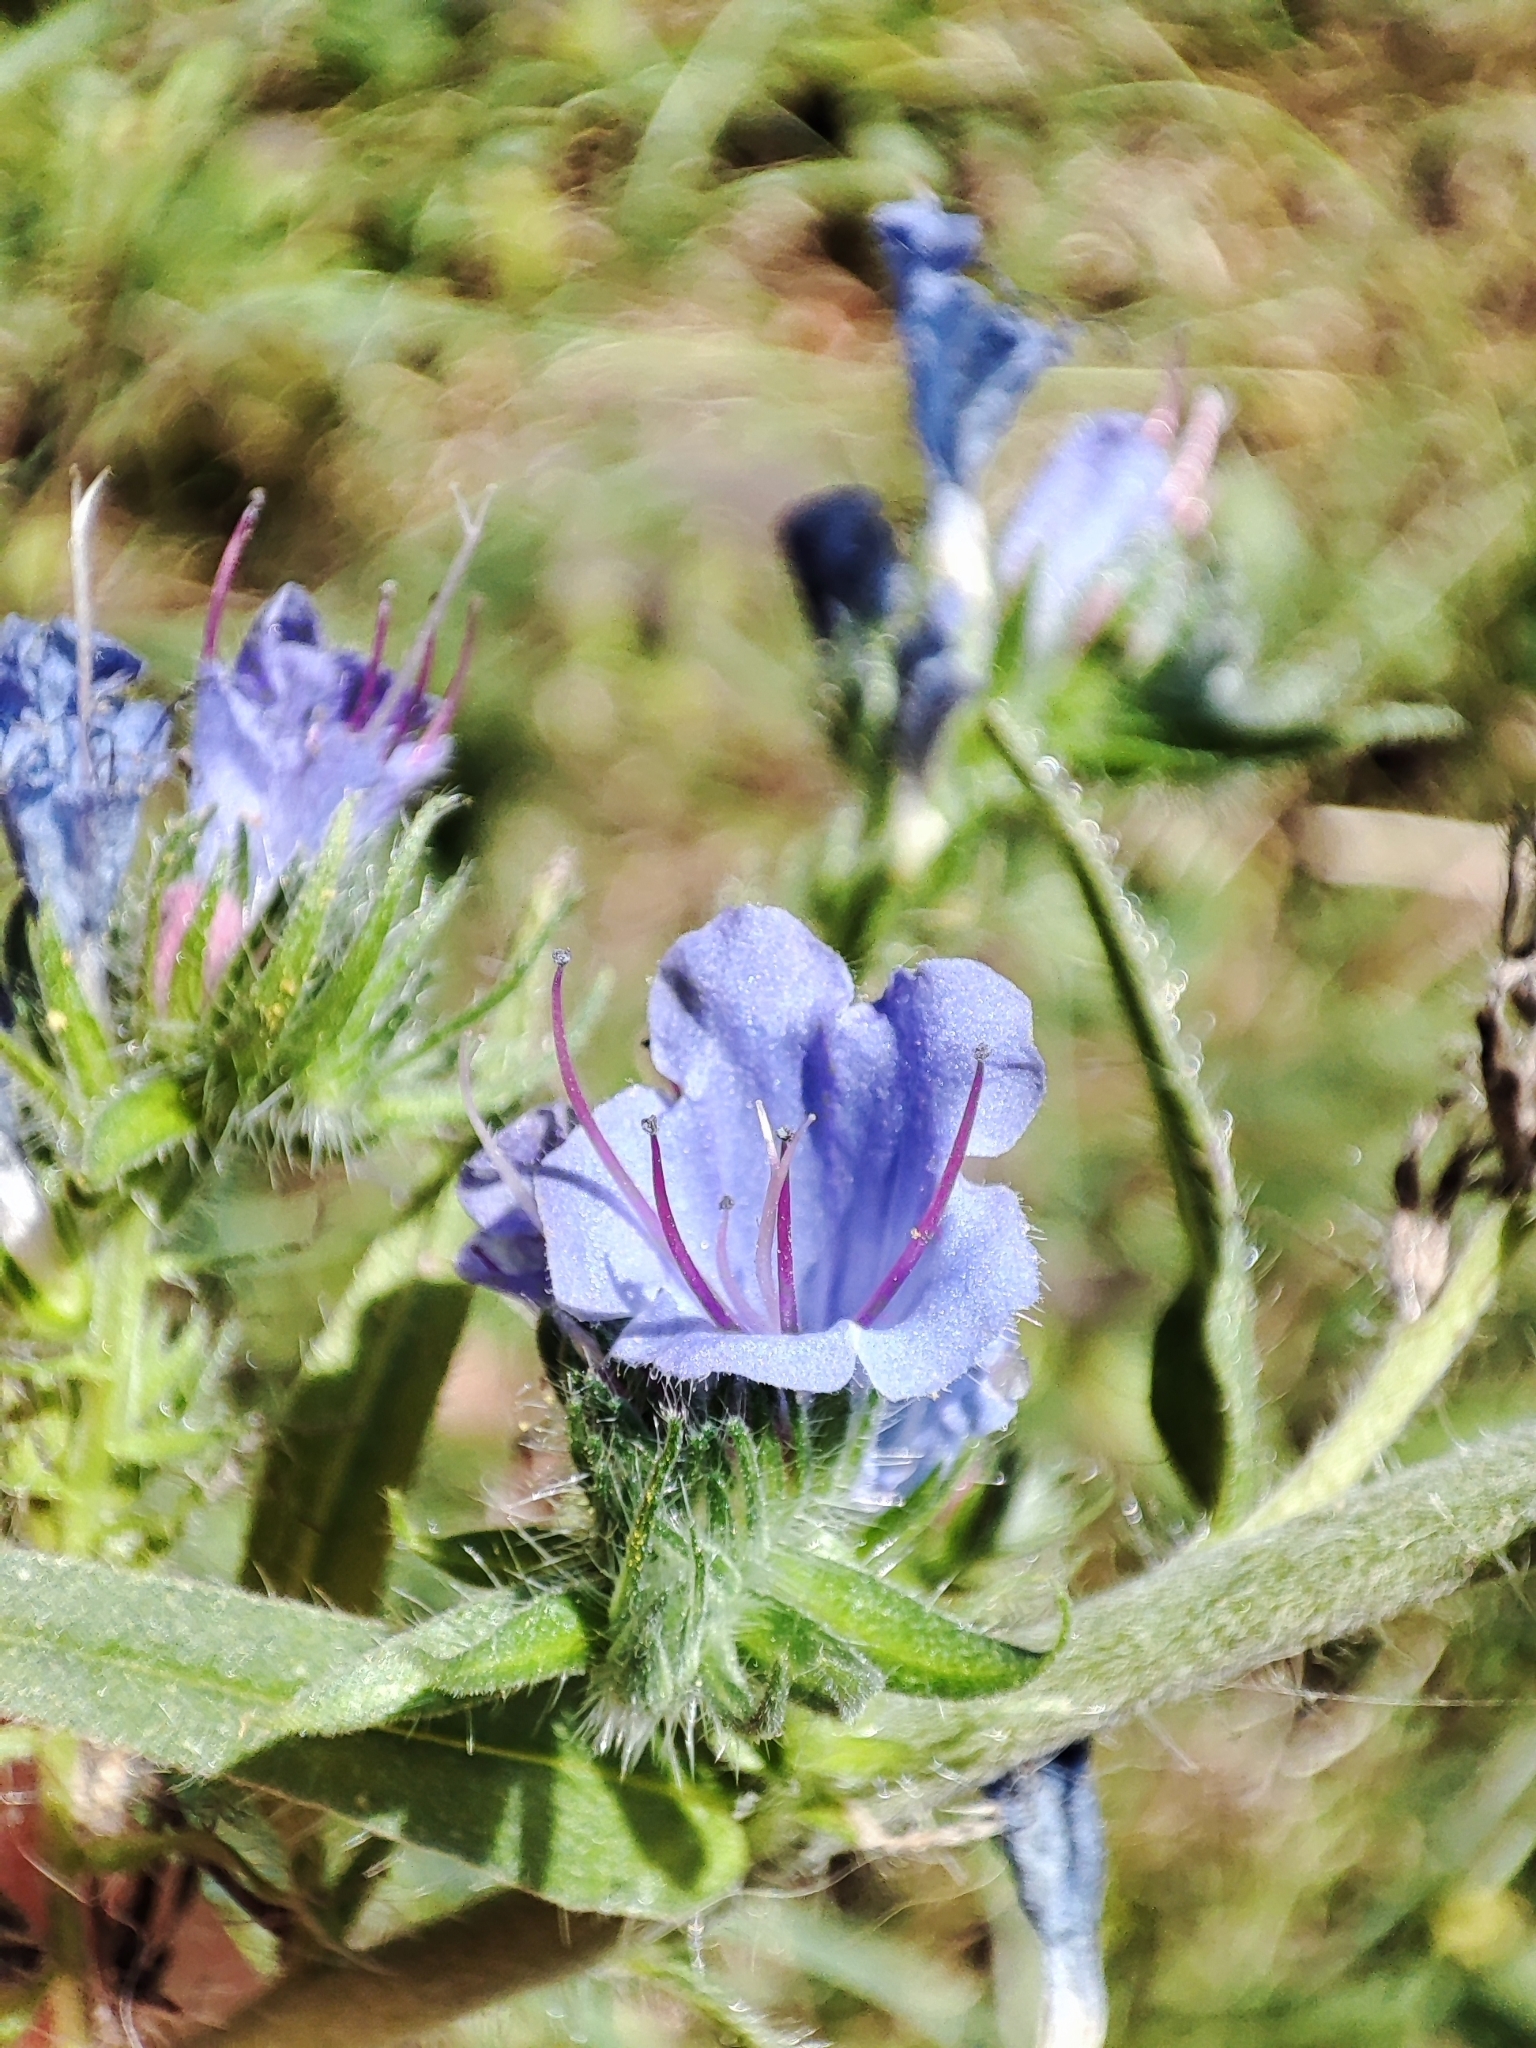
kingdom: Plantae
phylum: Tracheophyta
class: Magnoliopsida
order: Boraginales
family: Boraginaceae
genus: Echium
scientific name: Echium vulgare
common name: Common viper's bugloss
